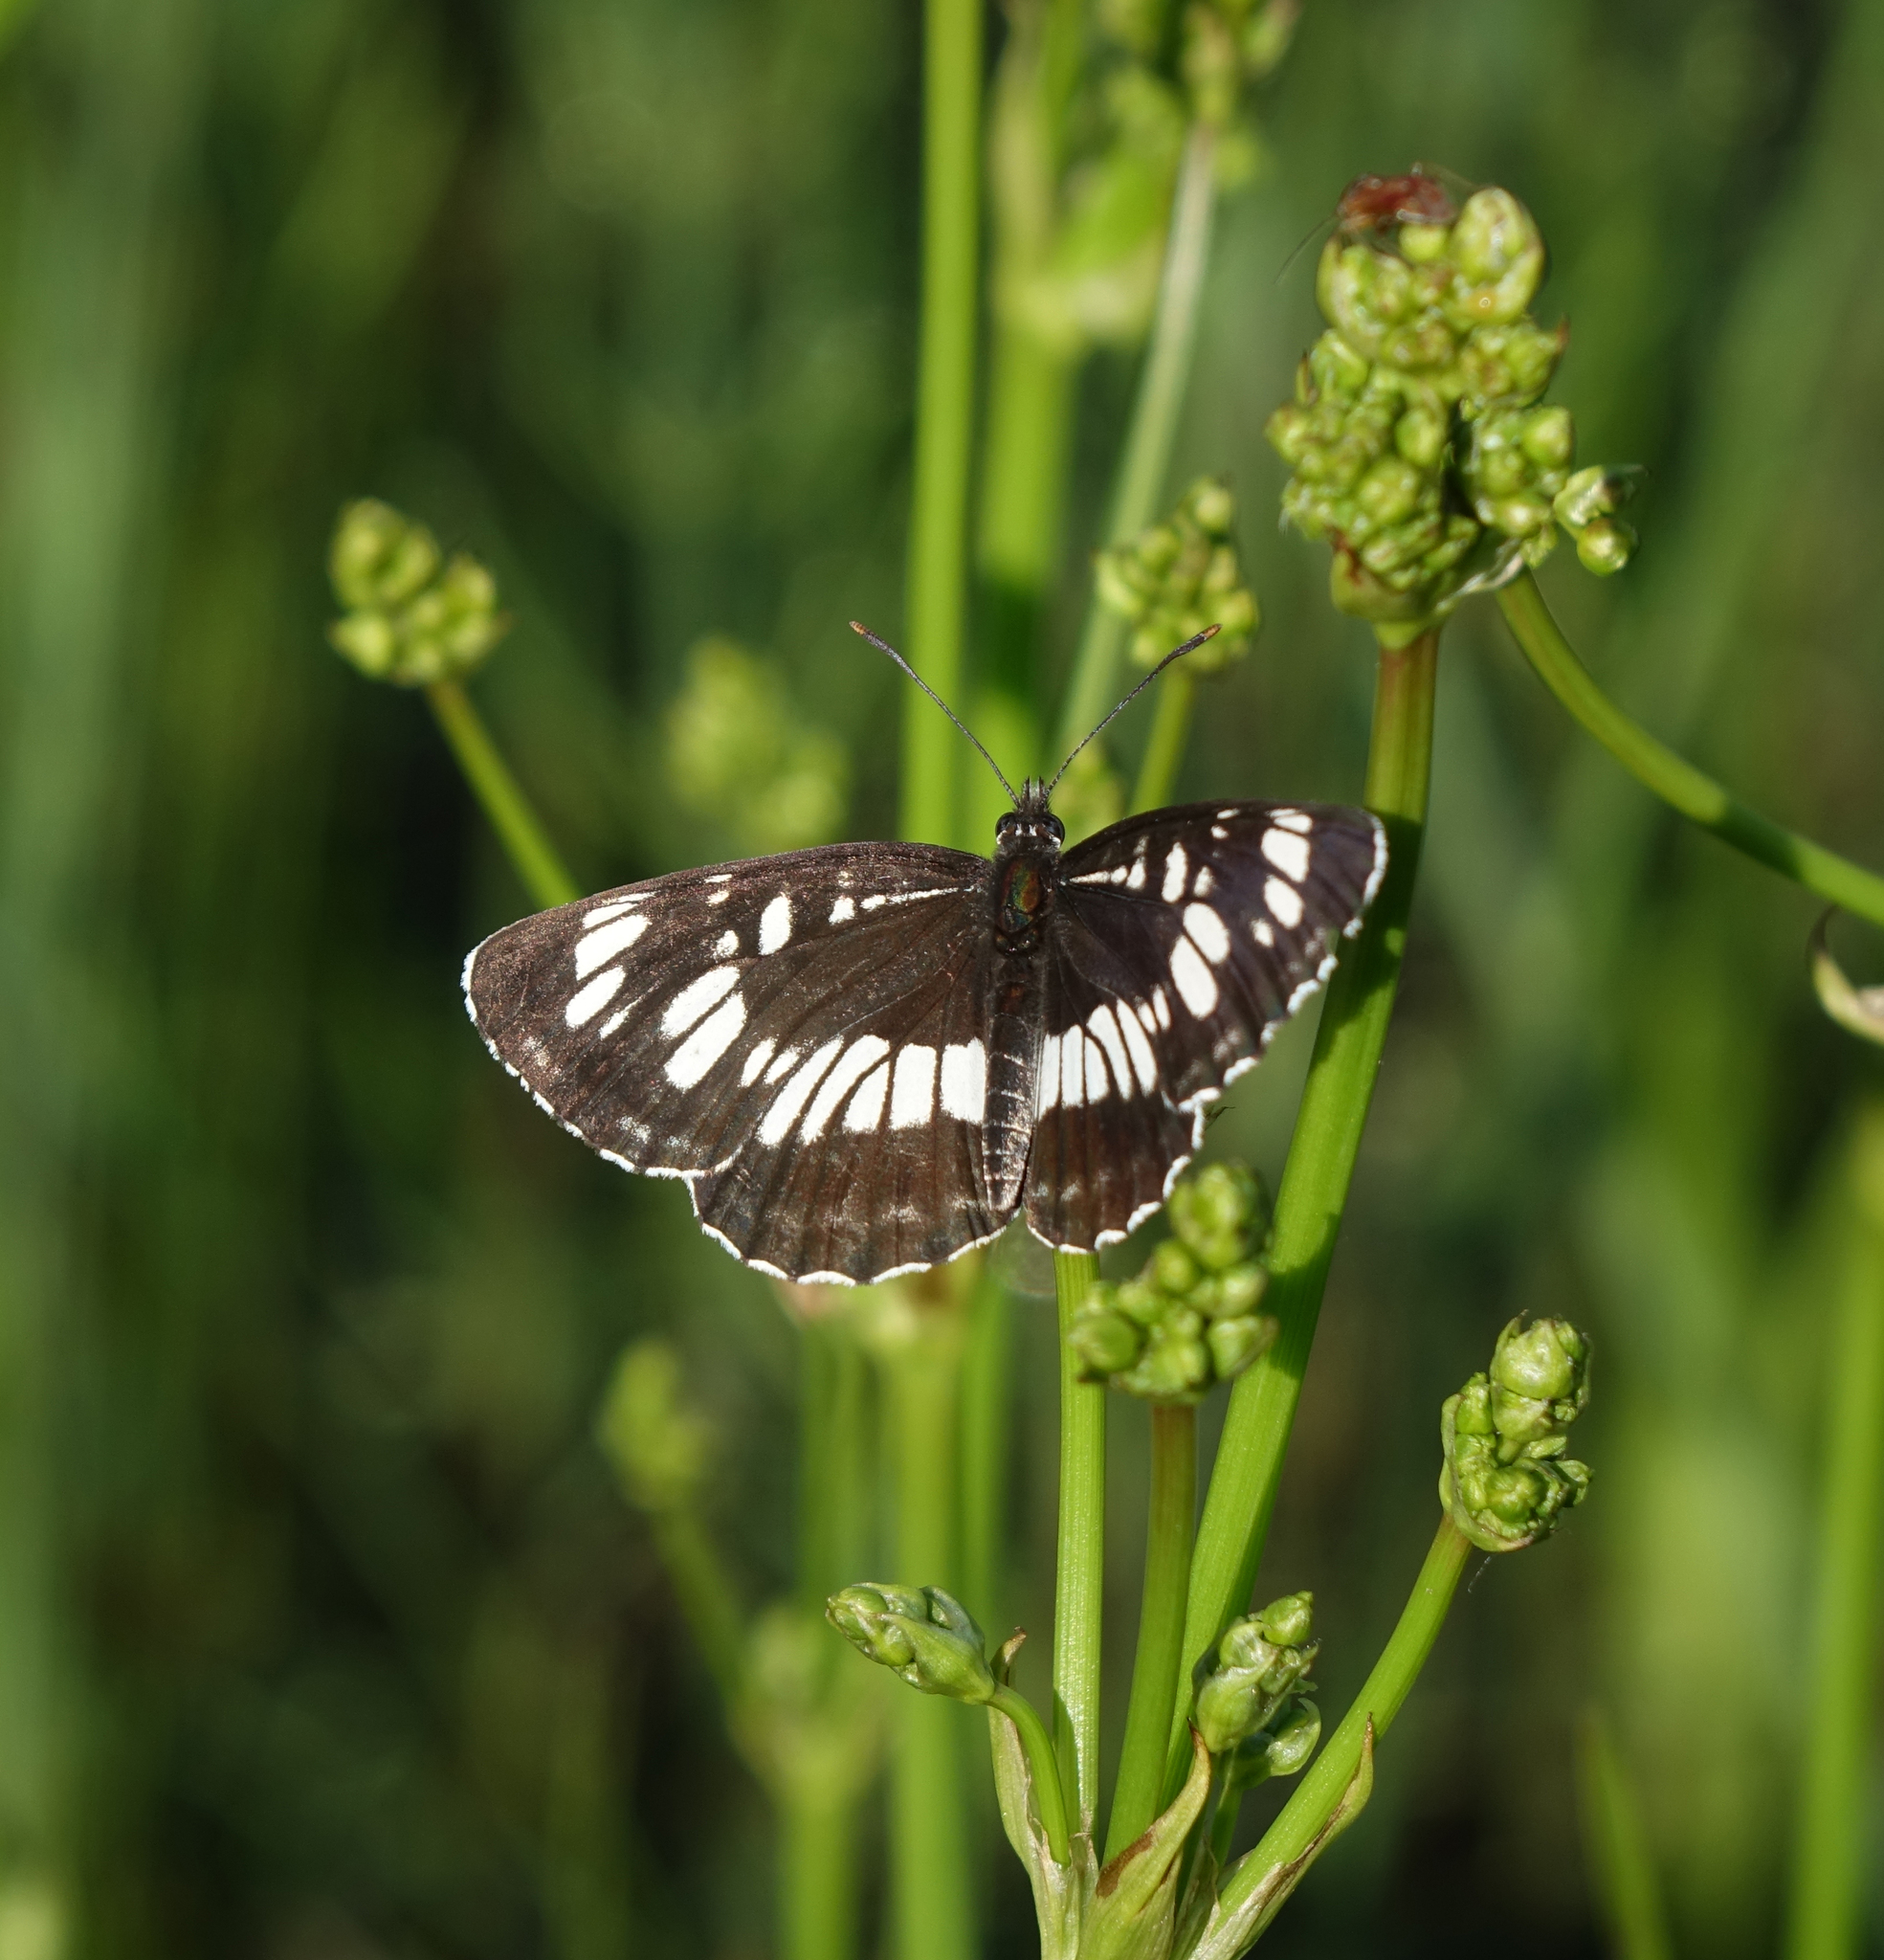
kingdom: Plantae
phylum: Tracheophyta
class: Liliopsida
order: Alismatales
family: Alismataceae
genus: Alisma
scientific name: Alisma plantago-aquatica
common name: Water-plantain
